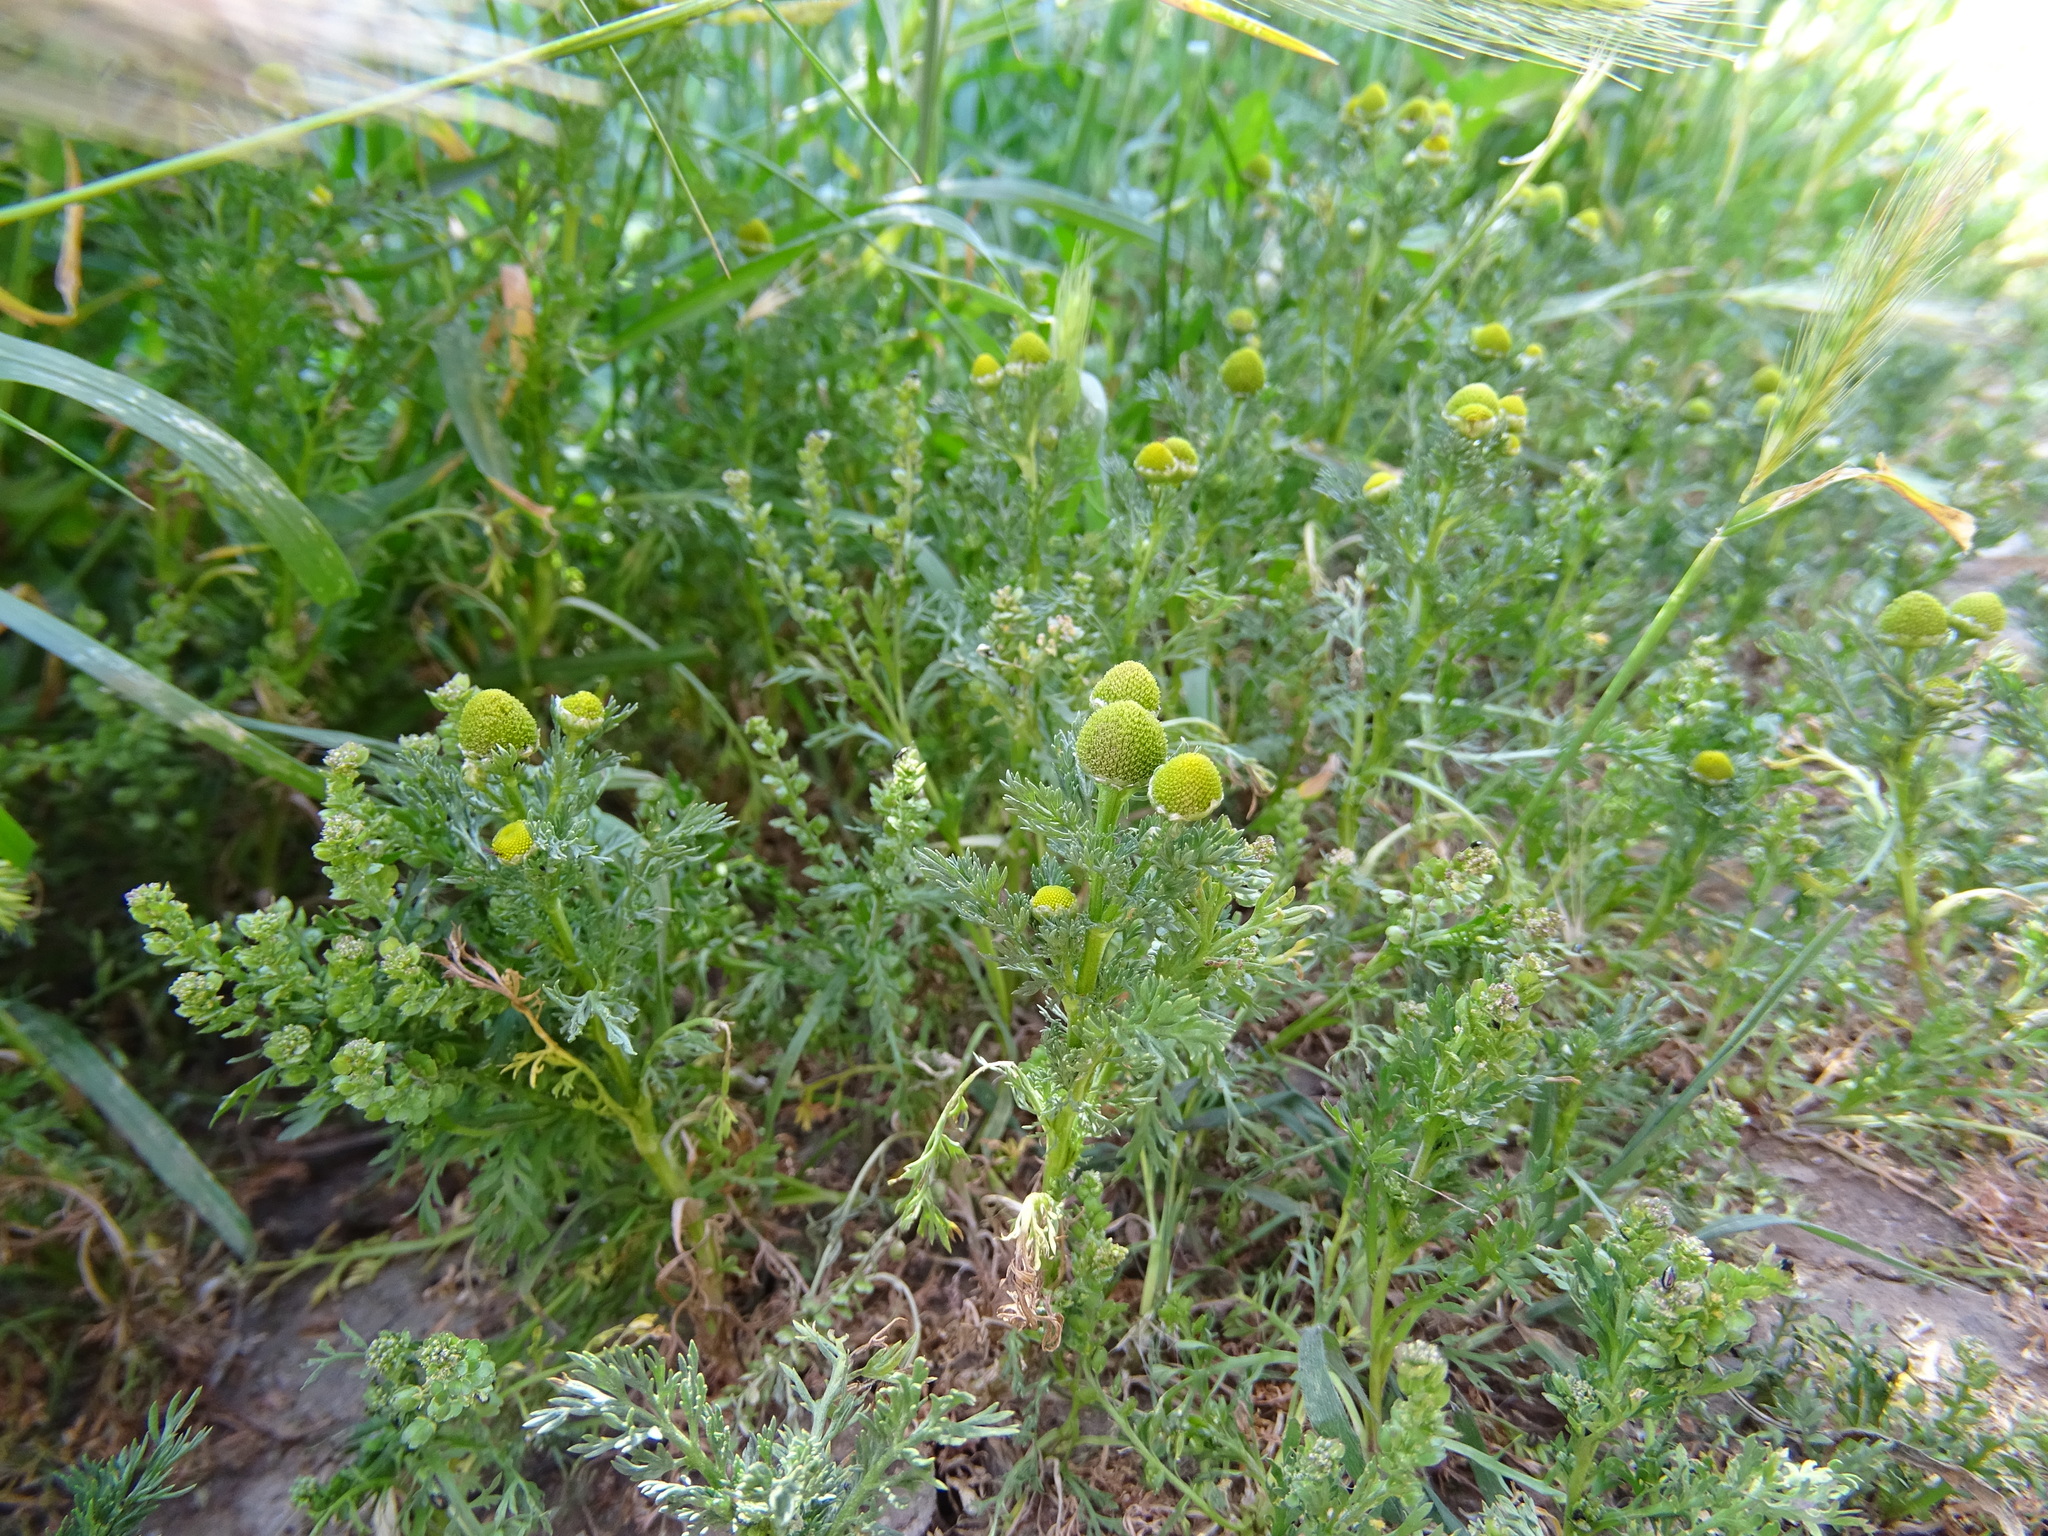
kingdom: Plantae
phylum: Tracheophyta
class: Magnoliopsida
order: Asterales
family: Asteraceae
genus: Matricaria
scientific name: Matricaria discoidea
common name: Disc mayweed
